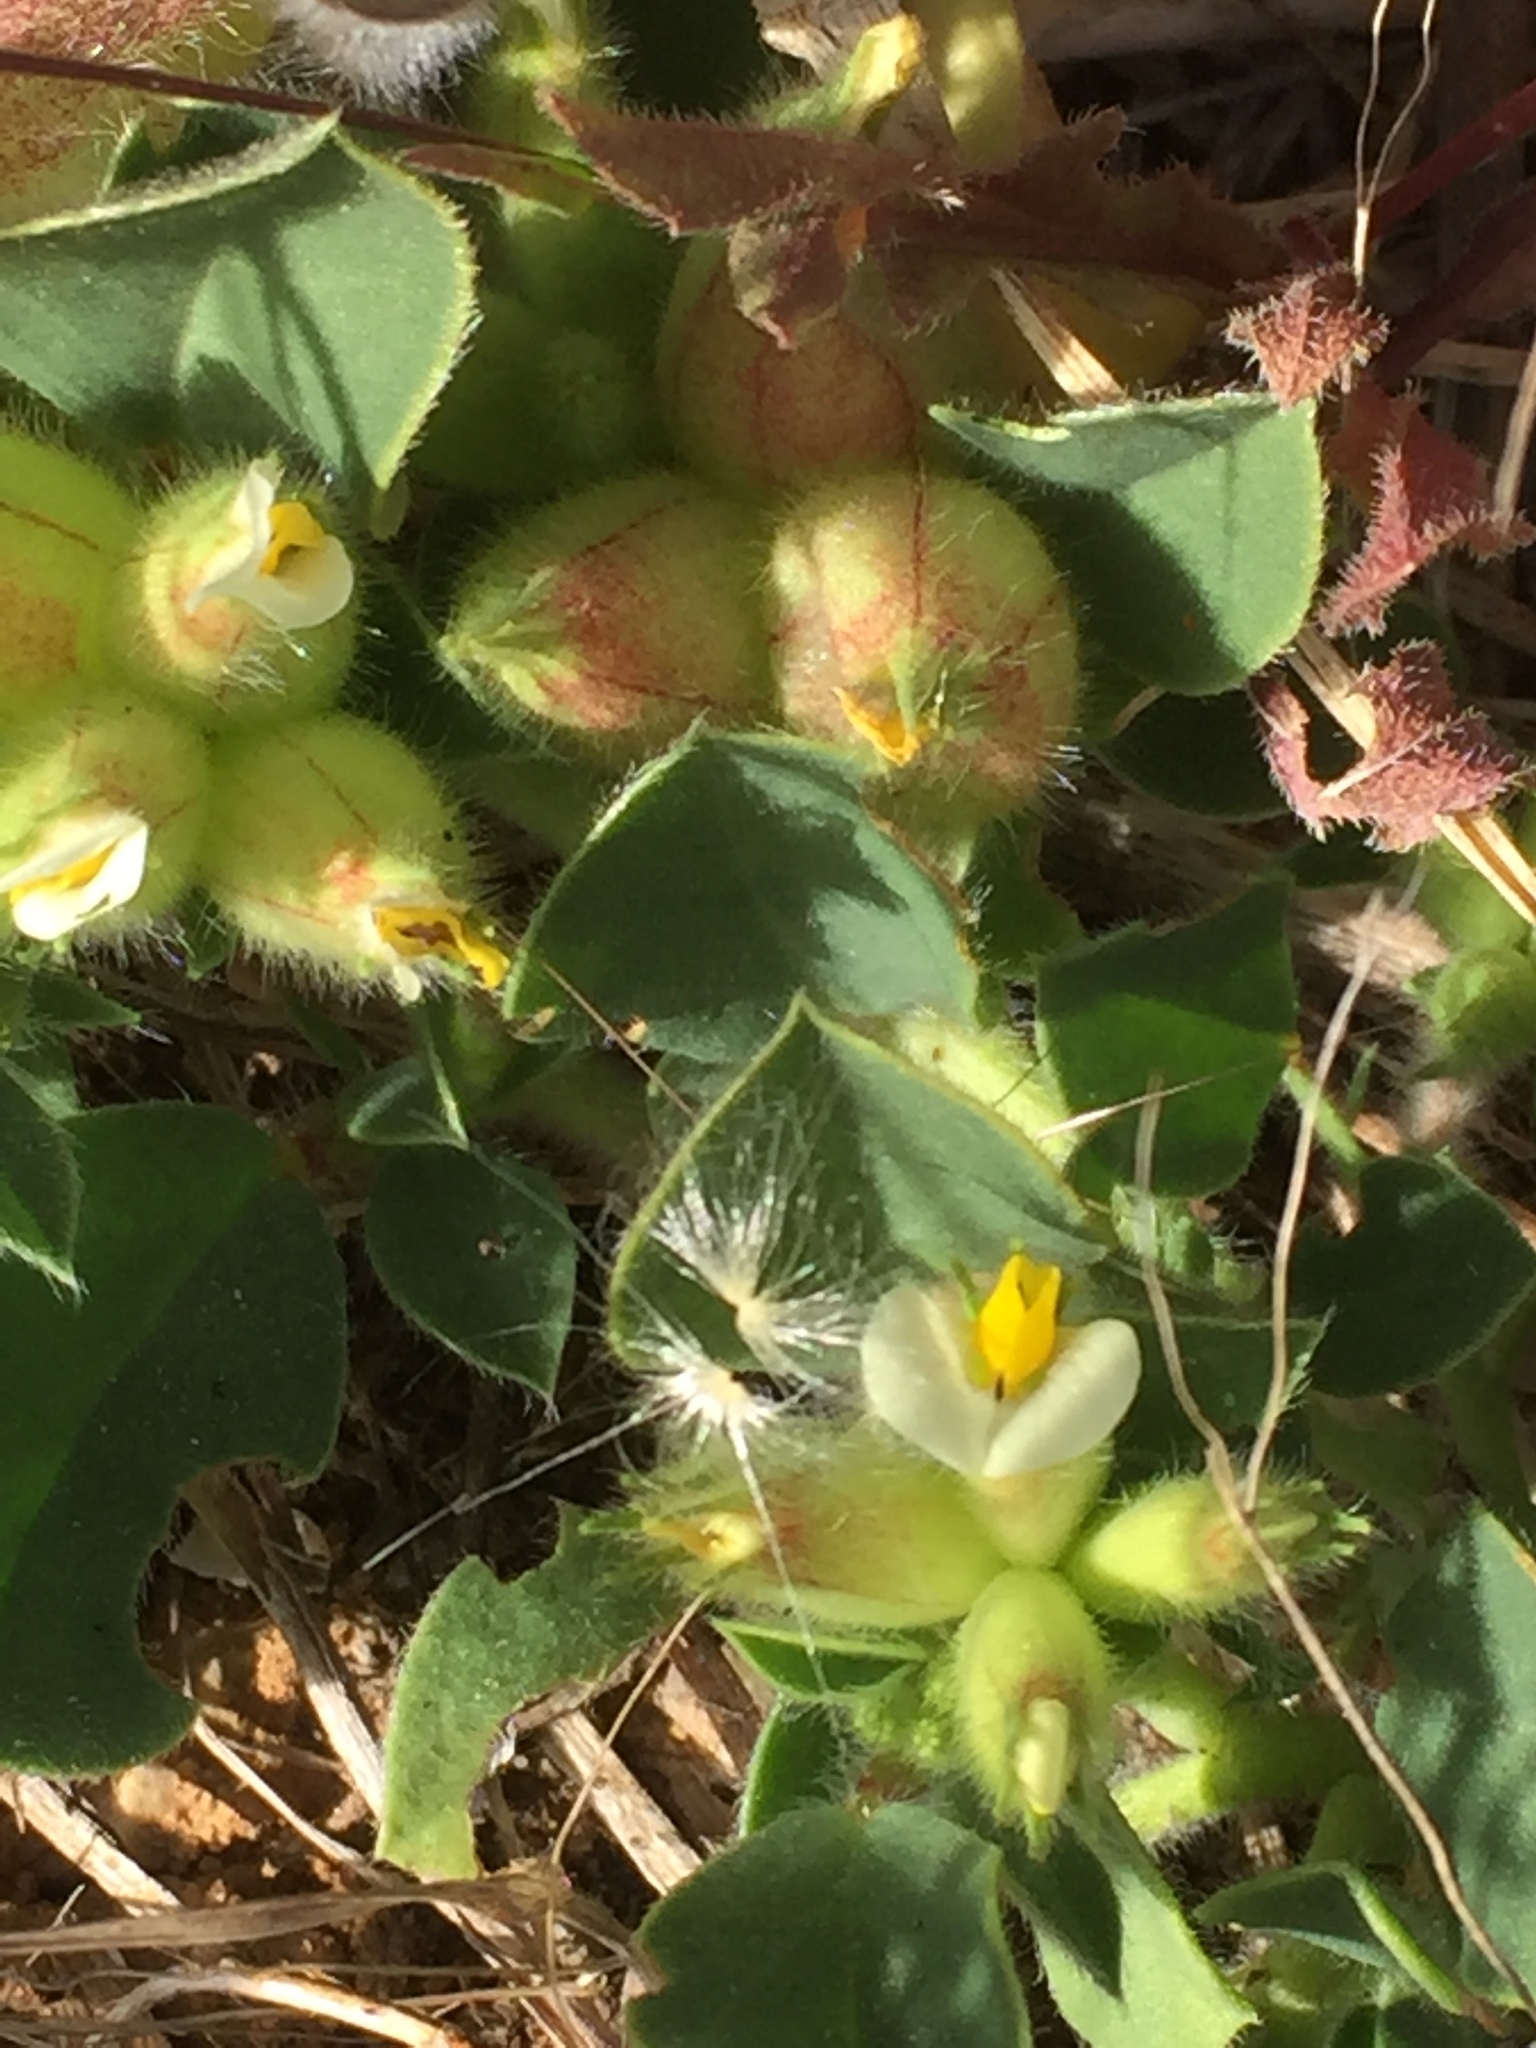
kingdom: Plantae
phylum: Tracheophyta
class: Magnoliopsida
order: Fabales
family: Fabaceae
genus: Tripodion
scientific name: Tripodion tetraphyllum
